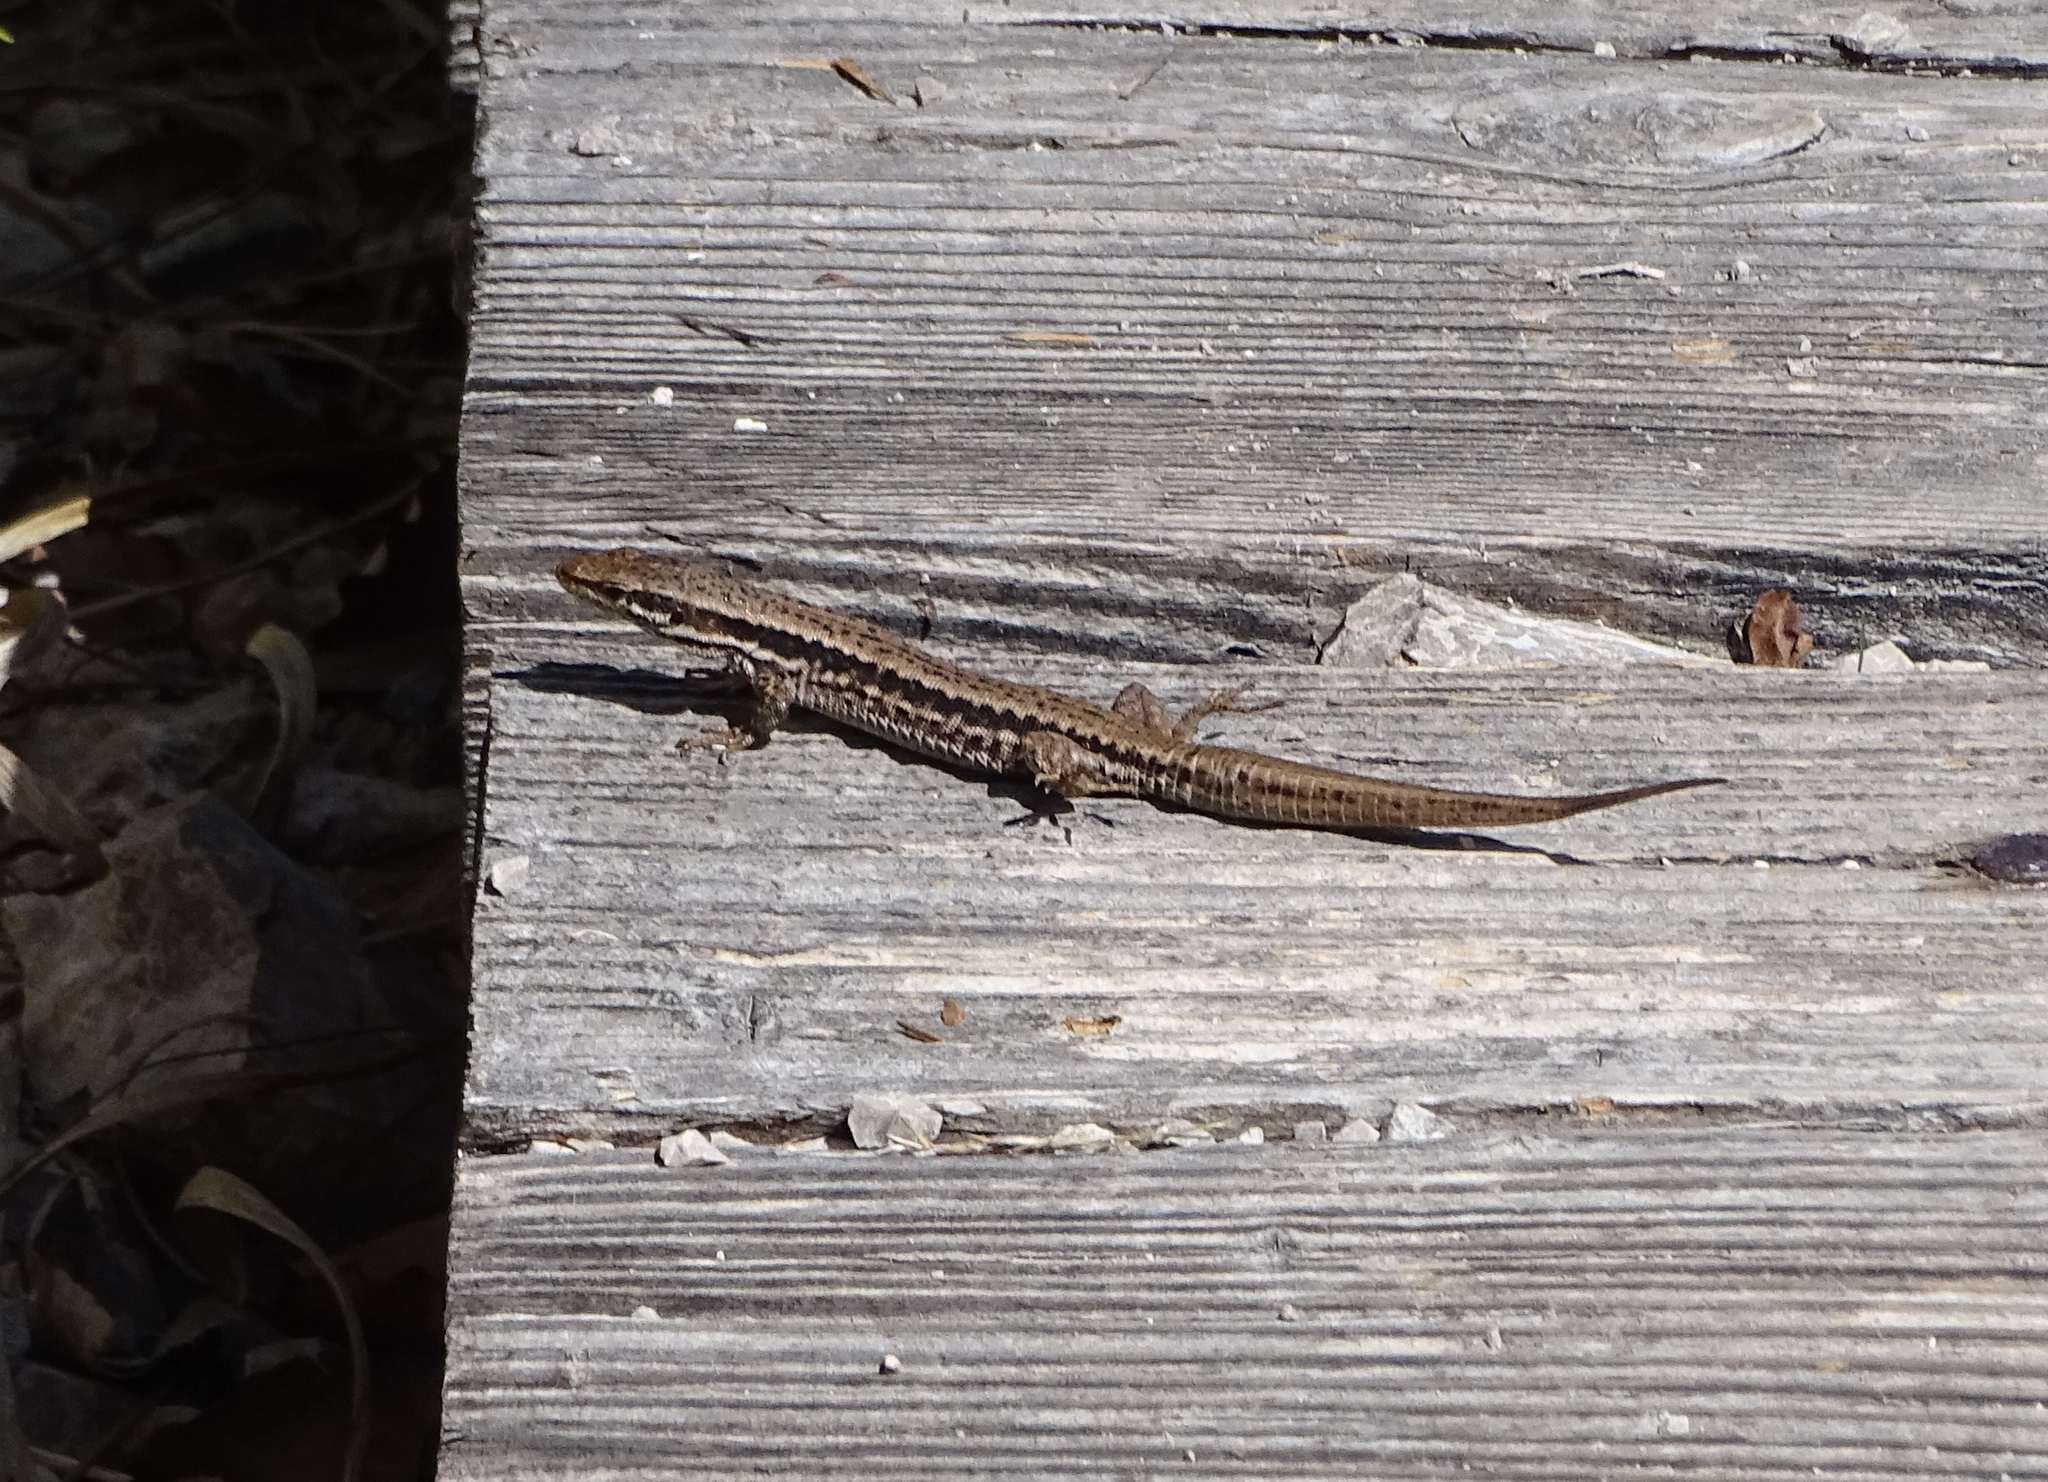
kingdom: Animalia
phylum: Chordata
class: Squamata
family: Lacertidae
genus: Podarcis
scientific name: Podarcis muralis
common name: Common wall lizard
